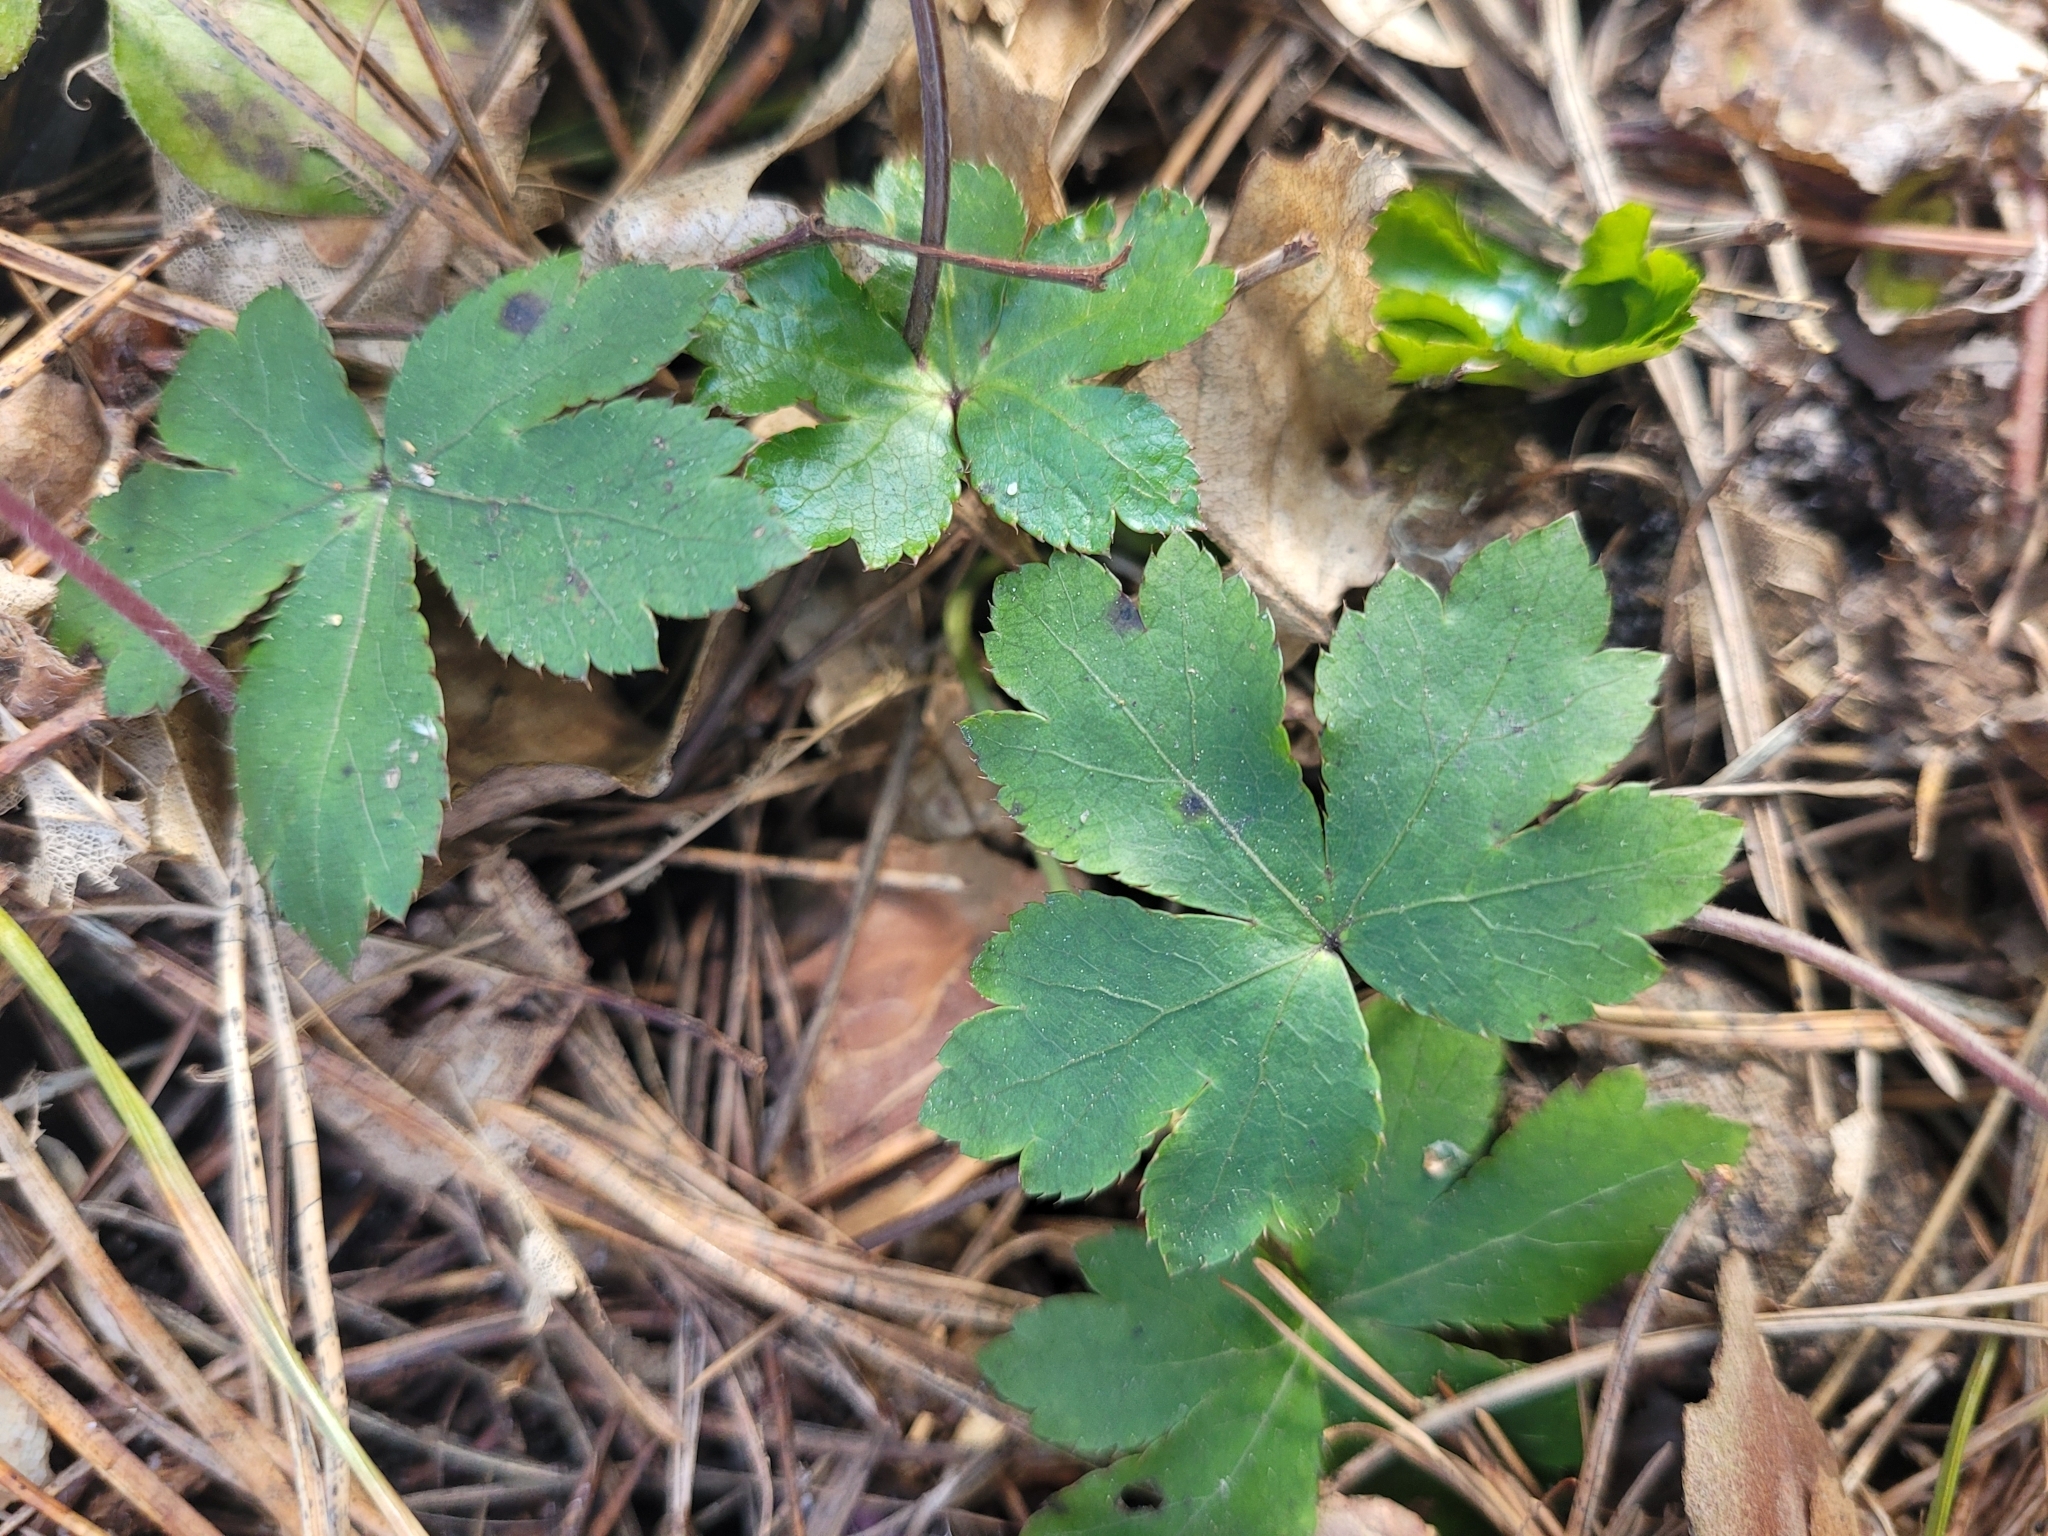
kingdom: Plantae
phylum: Tracheophyta
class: Magnoliopsida
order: Apiales
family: Apiaceae
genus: Sanicula
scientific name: Sanicula europaea
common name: Sanicle
